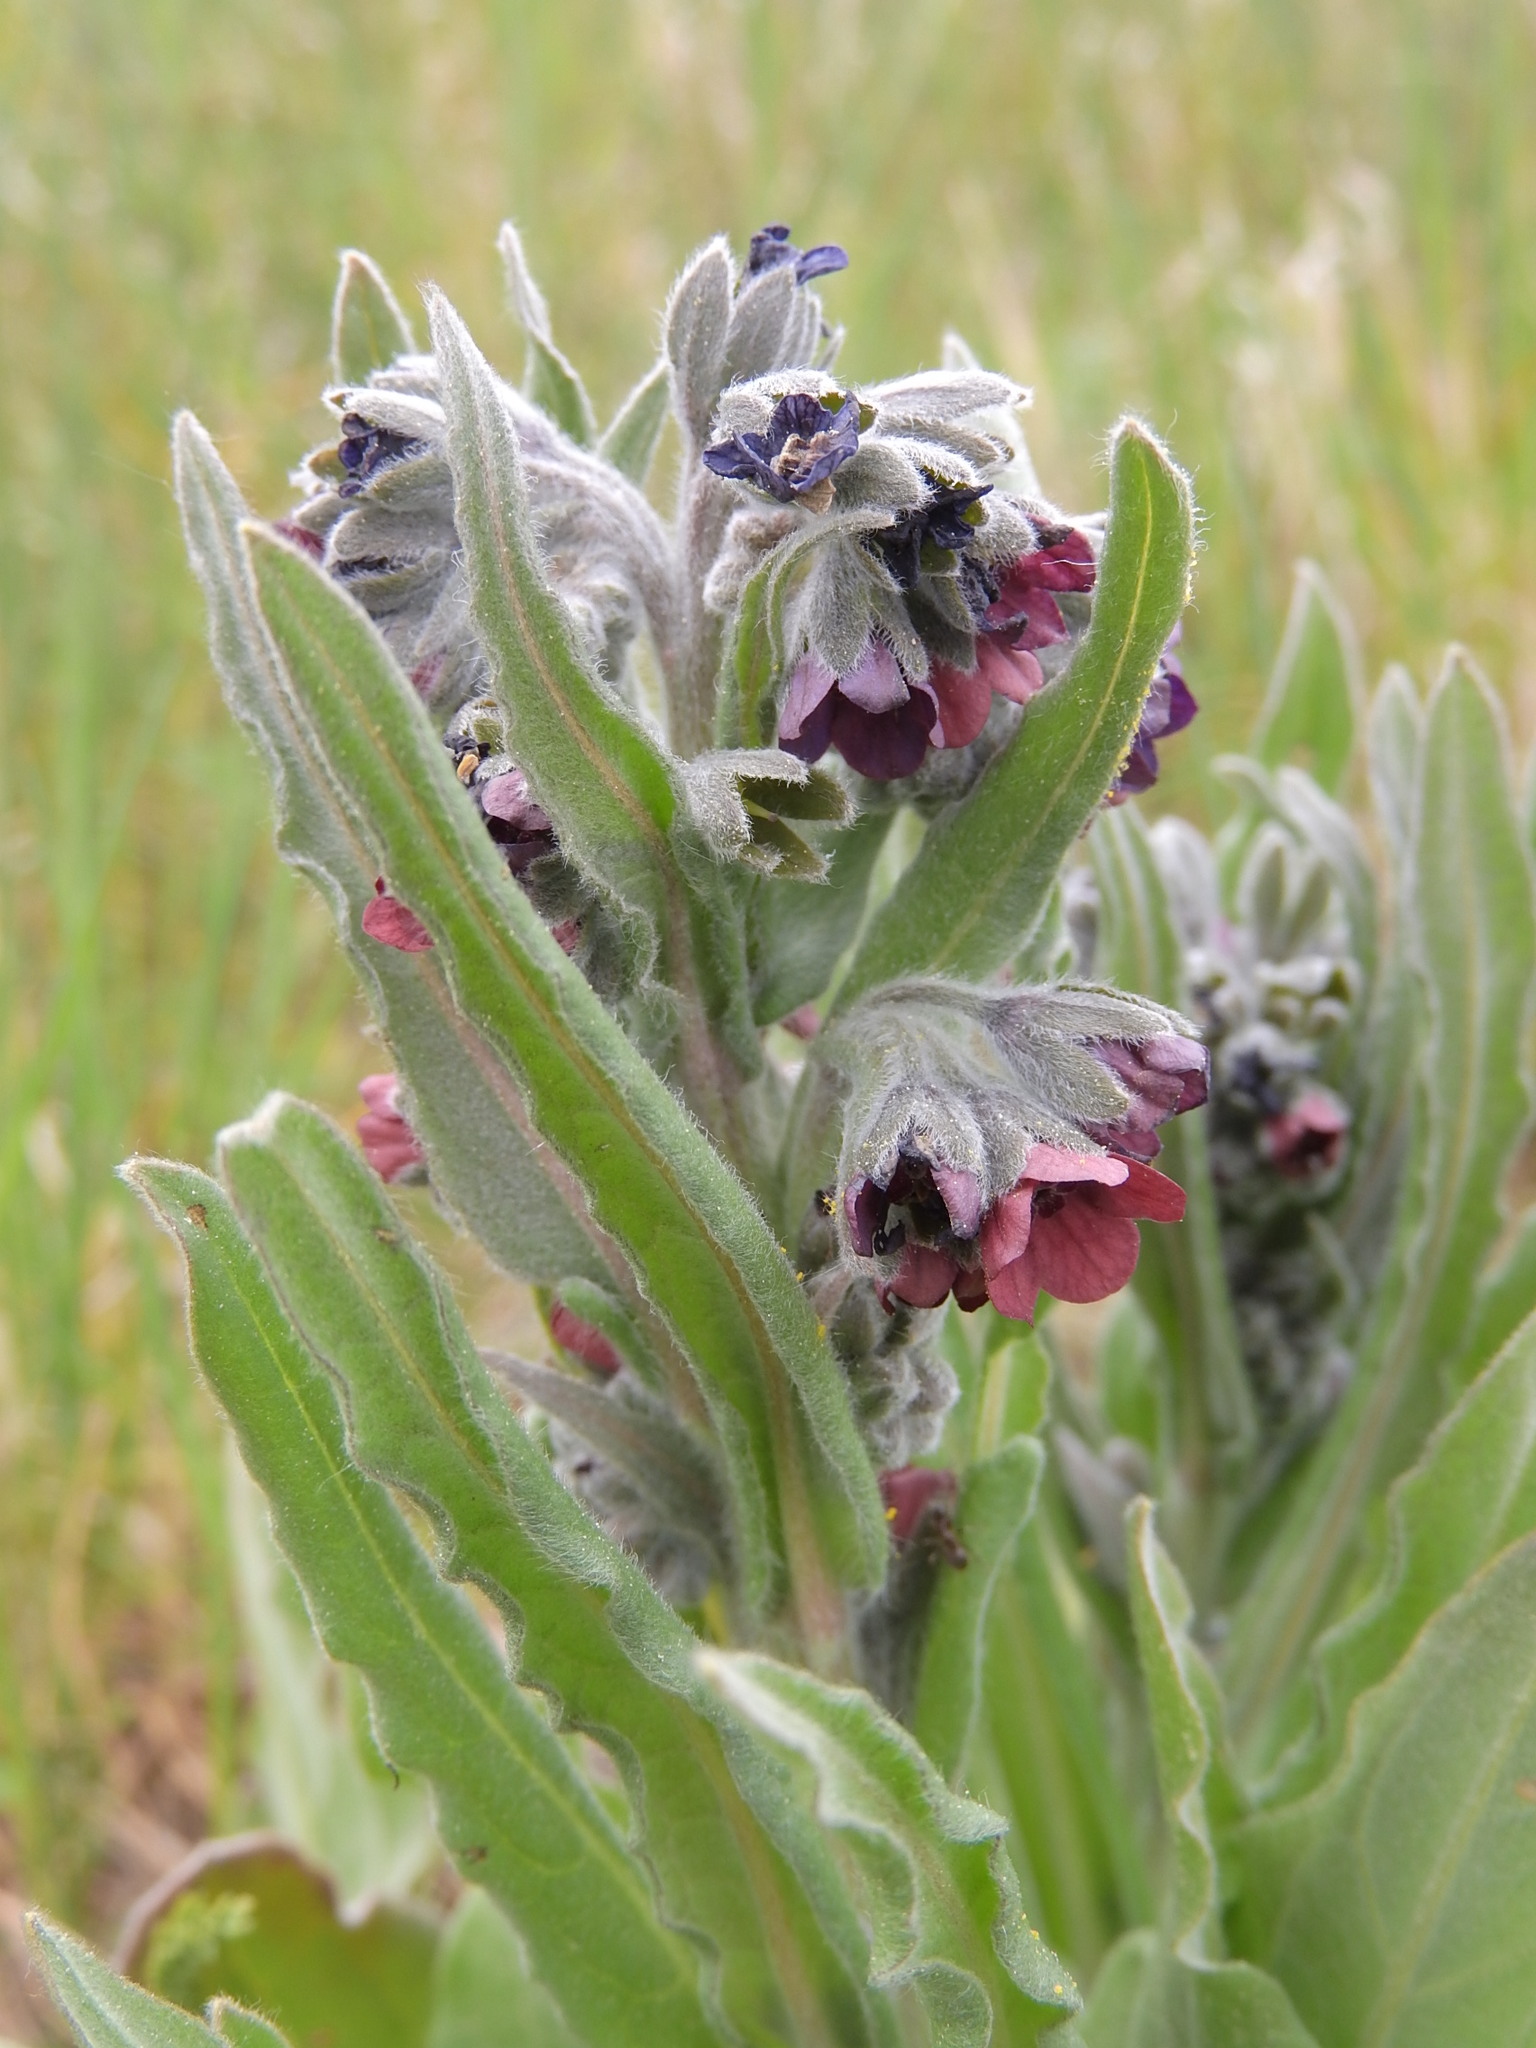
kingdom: Plantae
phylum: Tracheophyta
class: Magnoliopsida
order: Boraginales
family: Boraginaceae
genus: Cynoglossum
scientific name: Cynoglossum officinale
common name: Hound's-tongue
